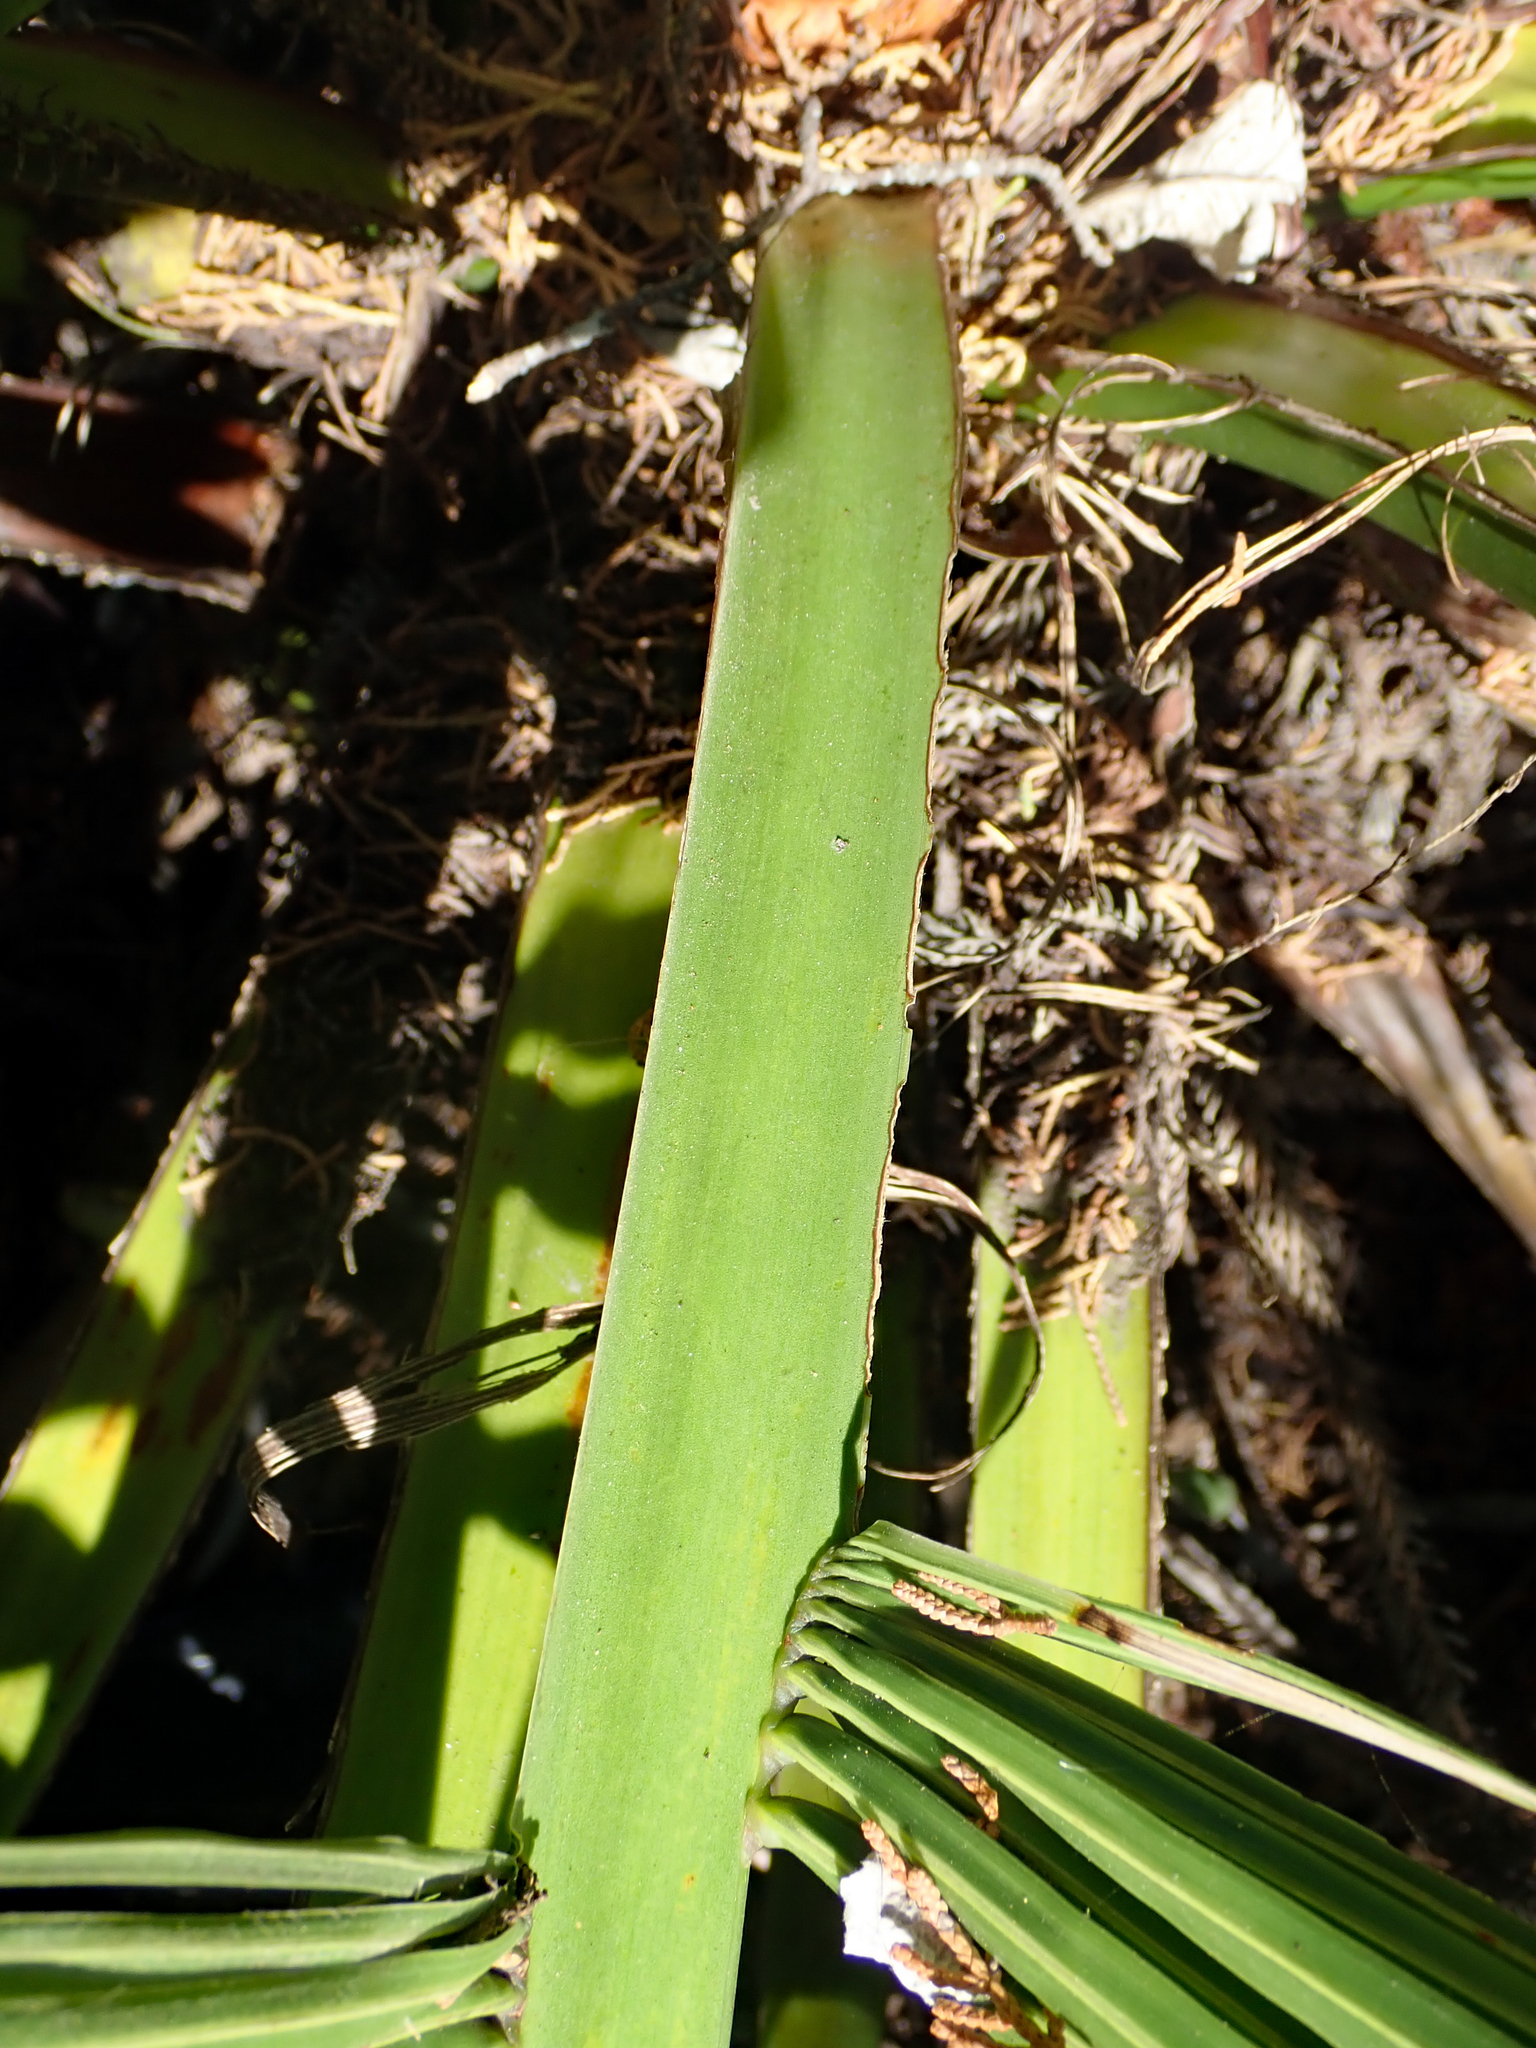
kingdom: Plantae
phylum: Tracheophyta
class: Liliopsida
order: Arecales
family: Arecaceae
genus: Butia
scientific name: Butia capitata
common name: South american jelly palm
